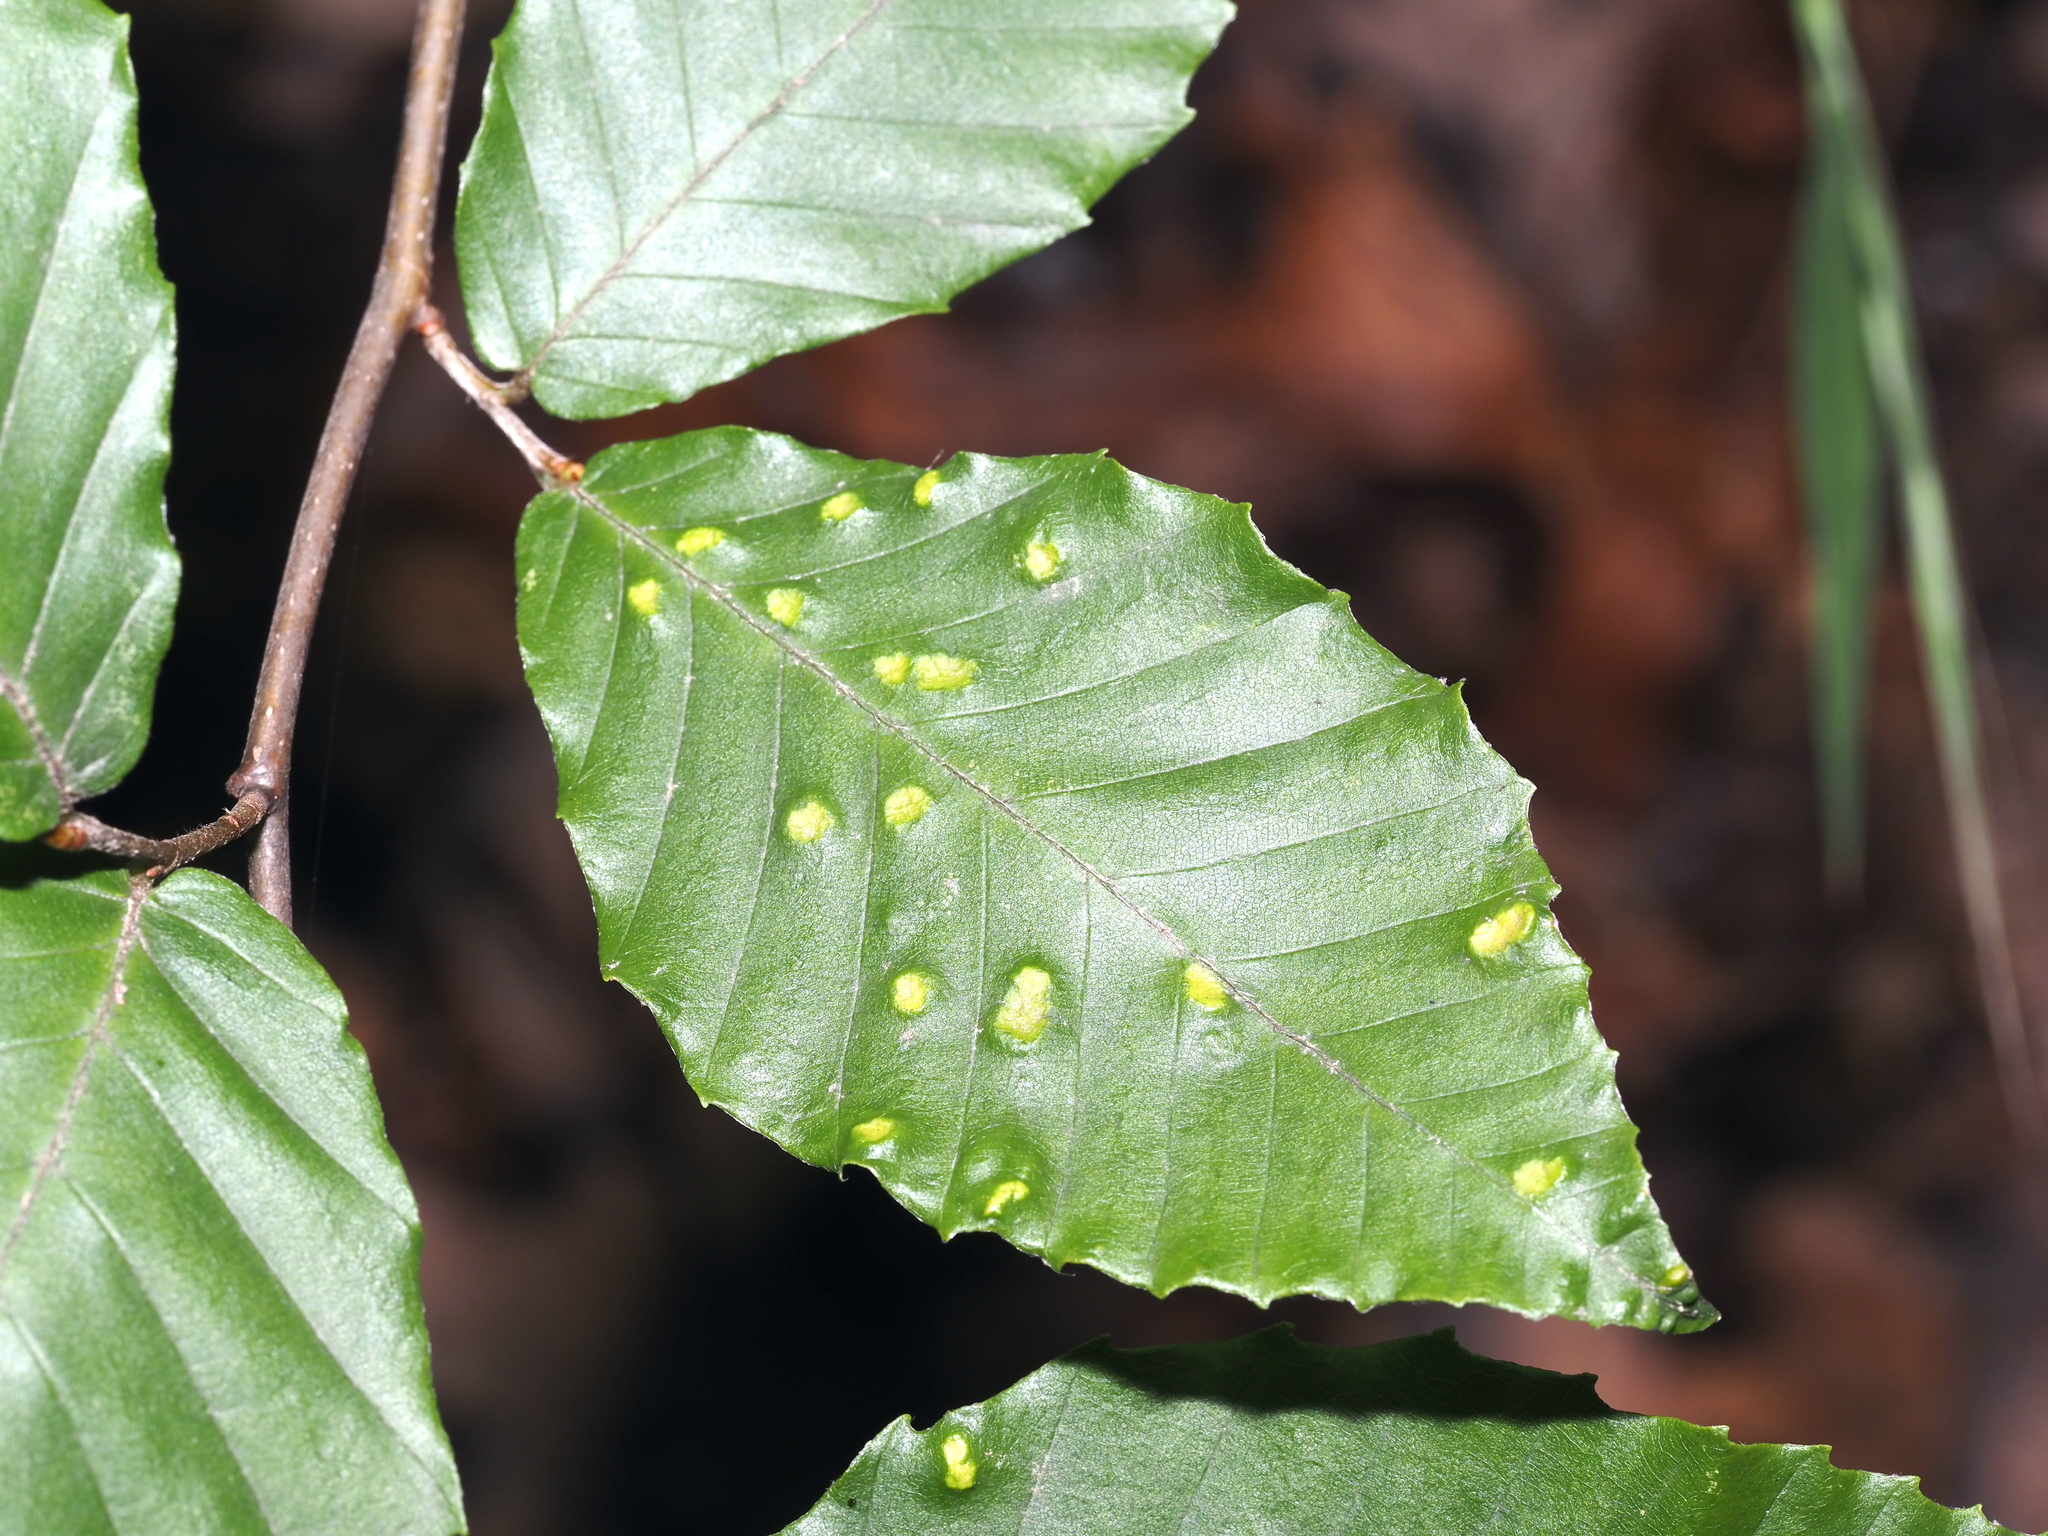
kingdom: Animalia
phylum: Arthropoda
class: Arachnida
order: Trombidiformes
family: Eriophyidae
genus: Acalitus
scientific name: Acalitus
